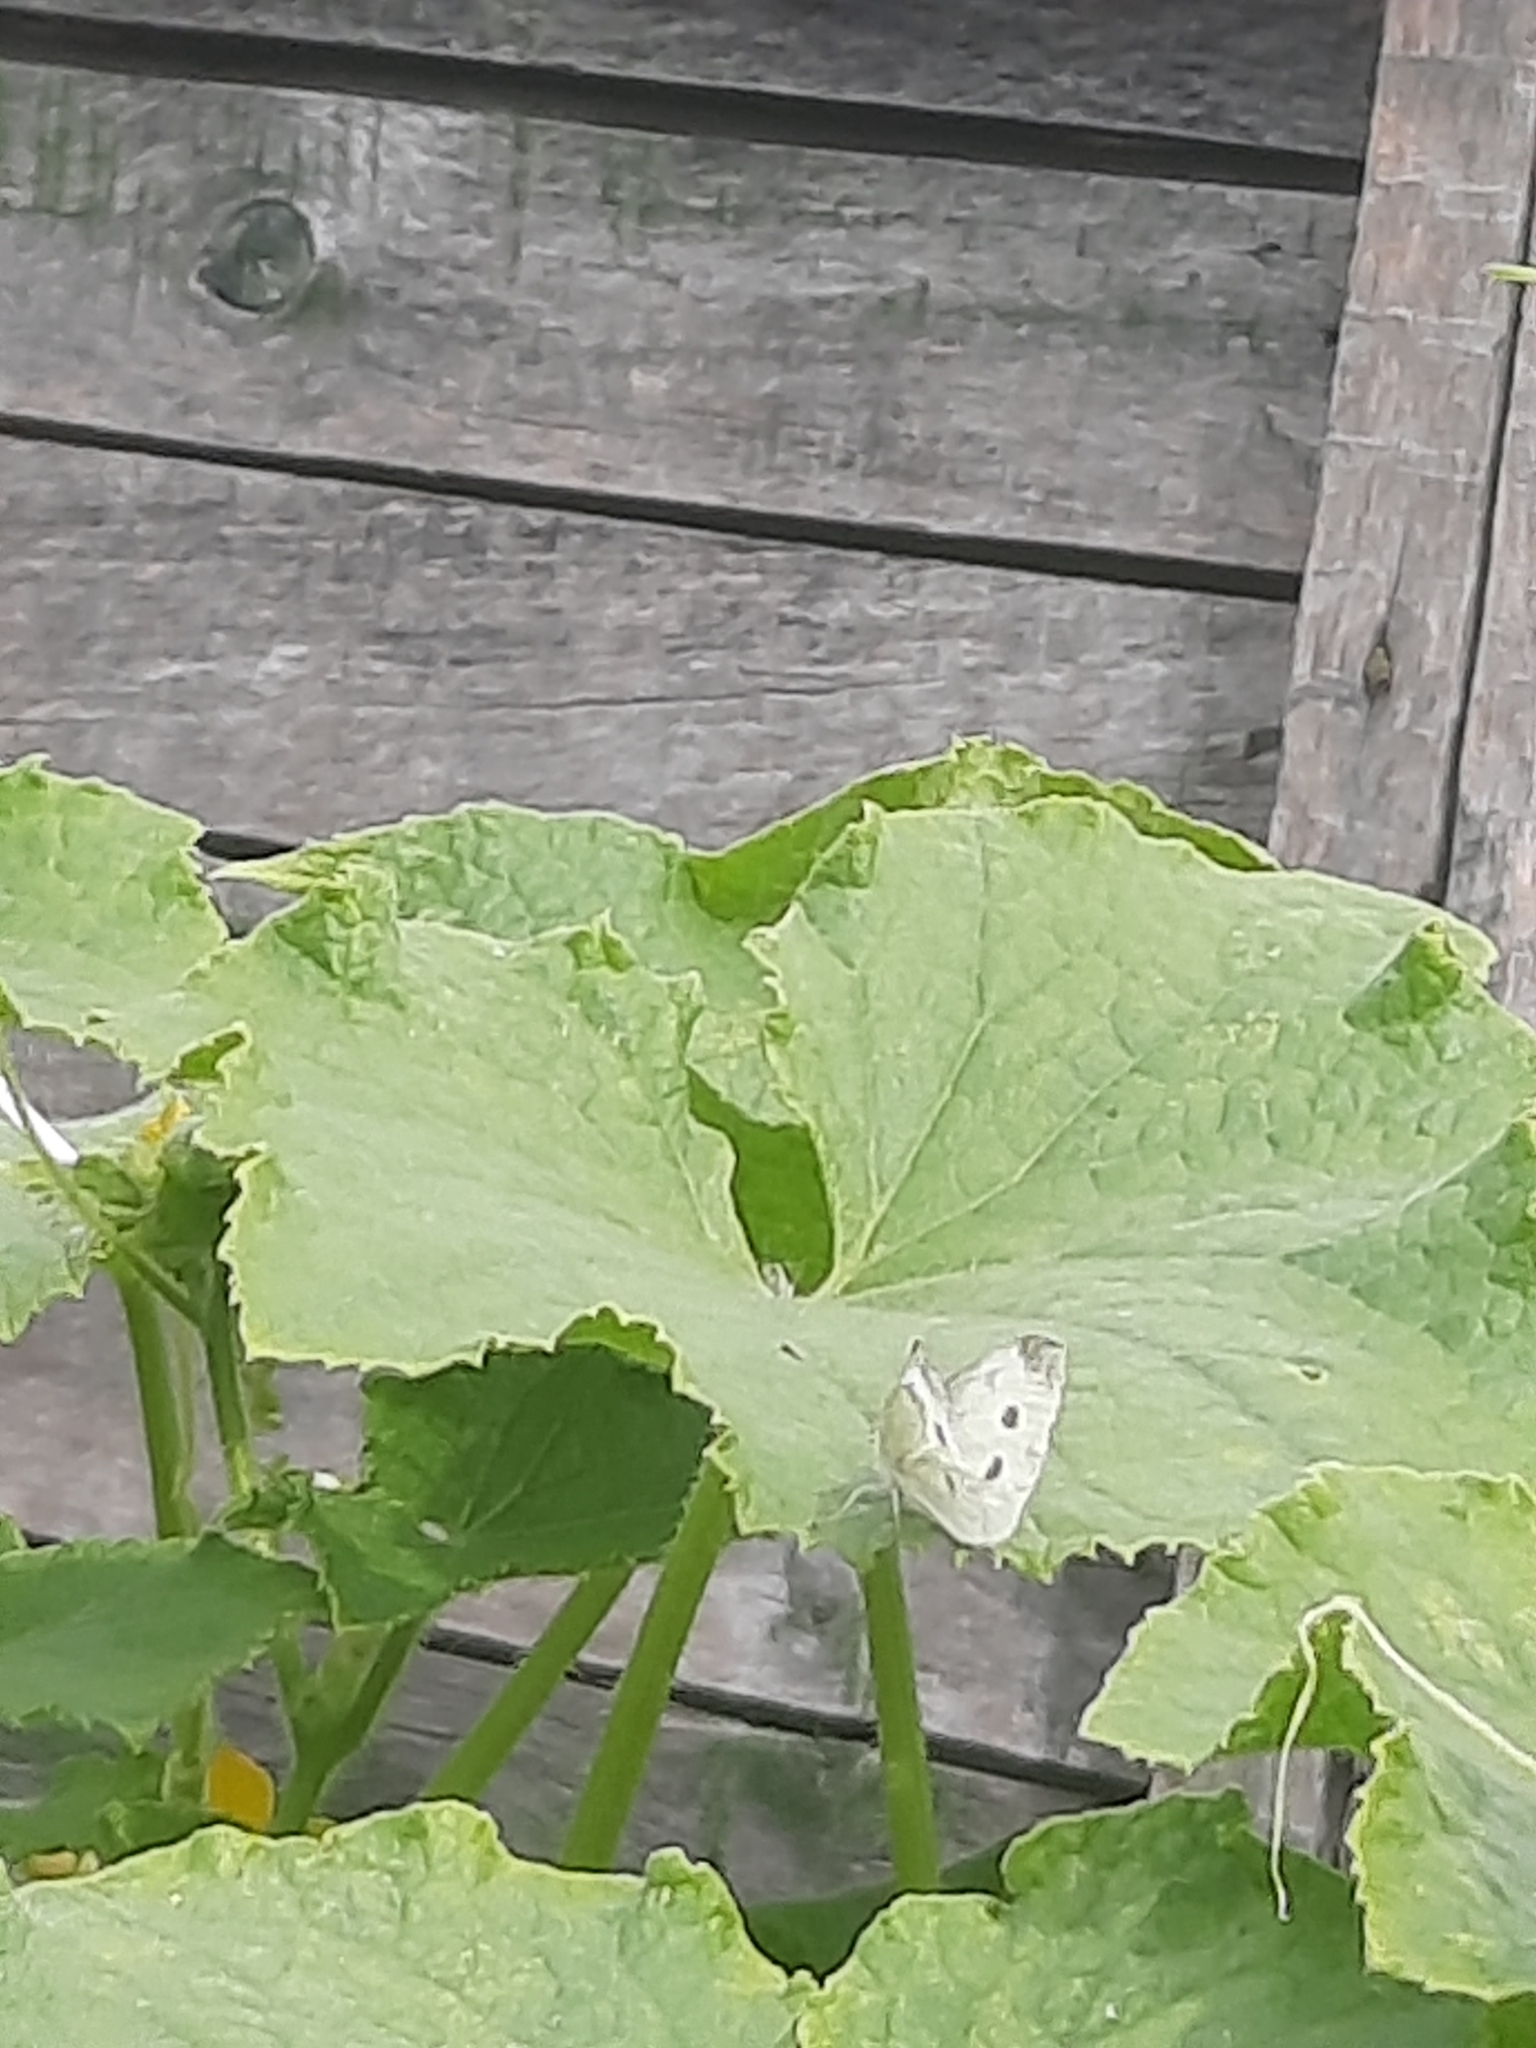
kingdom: Animalia
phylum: Arthropoda
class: Insecta
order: Lepidoptera
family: Pieridae
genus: Pieris
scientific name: Pieris napi
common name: Green-veined white
